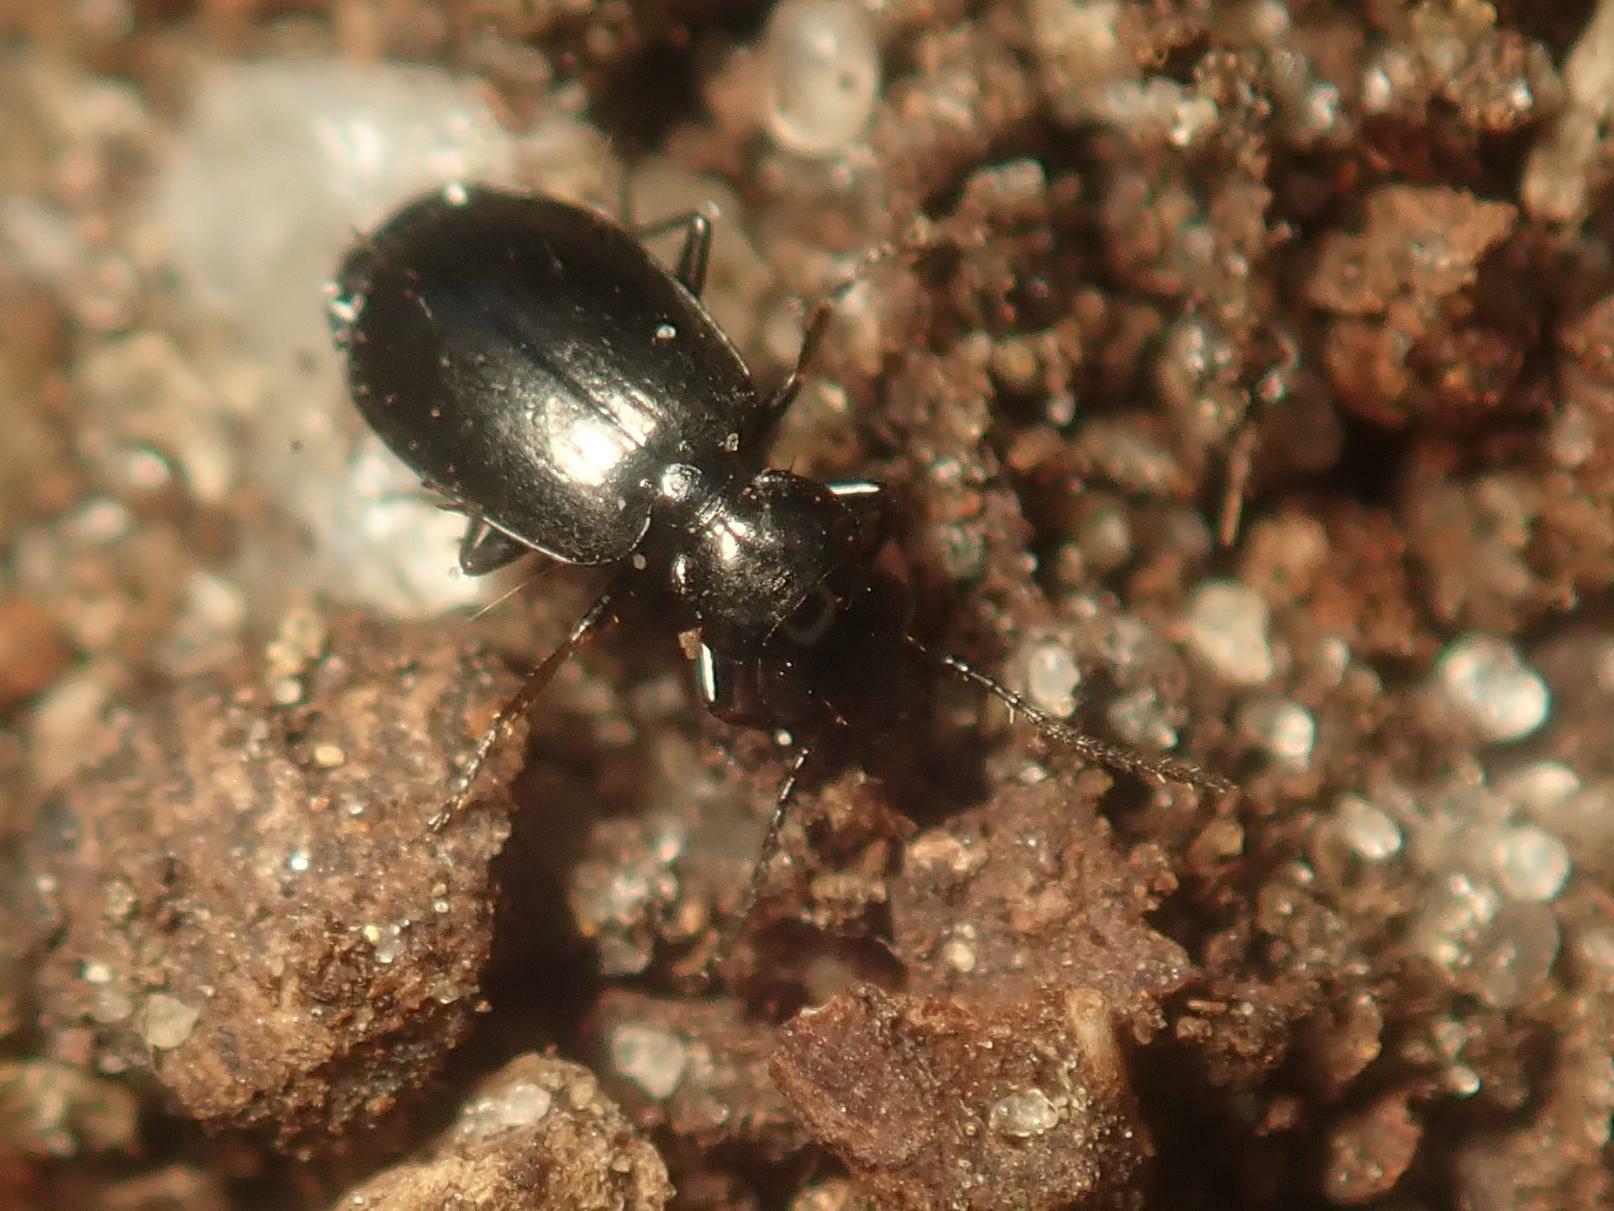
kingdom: Animalia
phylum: Arthropoda
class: Insecta
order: Coleoptera
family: Carabidae
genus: Syntomus
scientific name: Syntomus truncatellus
